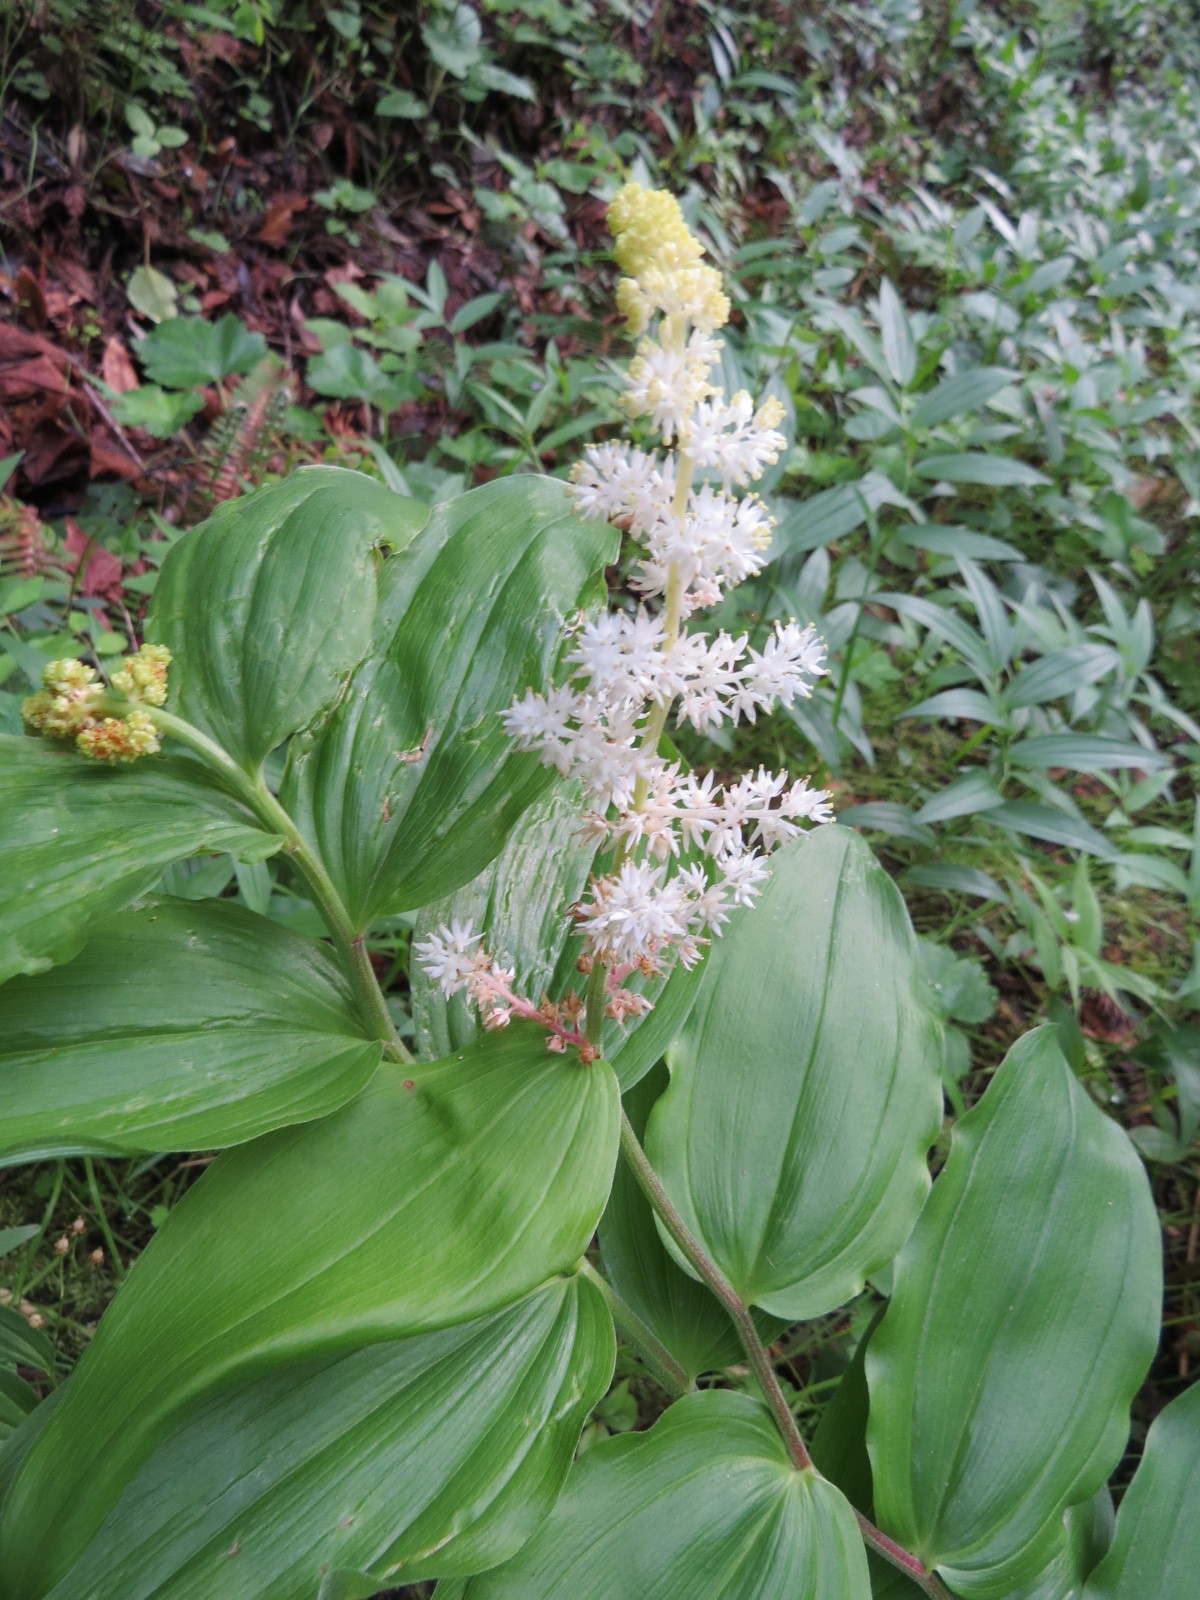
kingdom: Plantae
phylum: Tracheophyta
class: Liliopsida
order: Asparagales
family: Asparagaceae
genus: Maianthemum
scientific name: Maianthemum racemosum
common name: False spikenard
